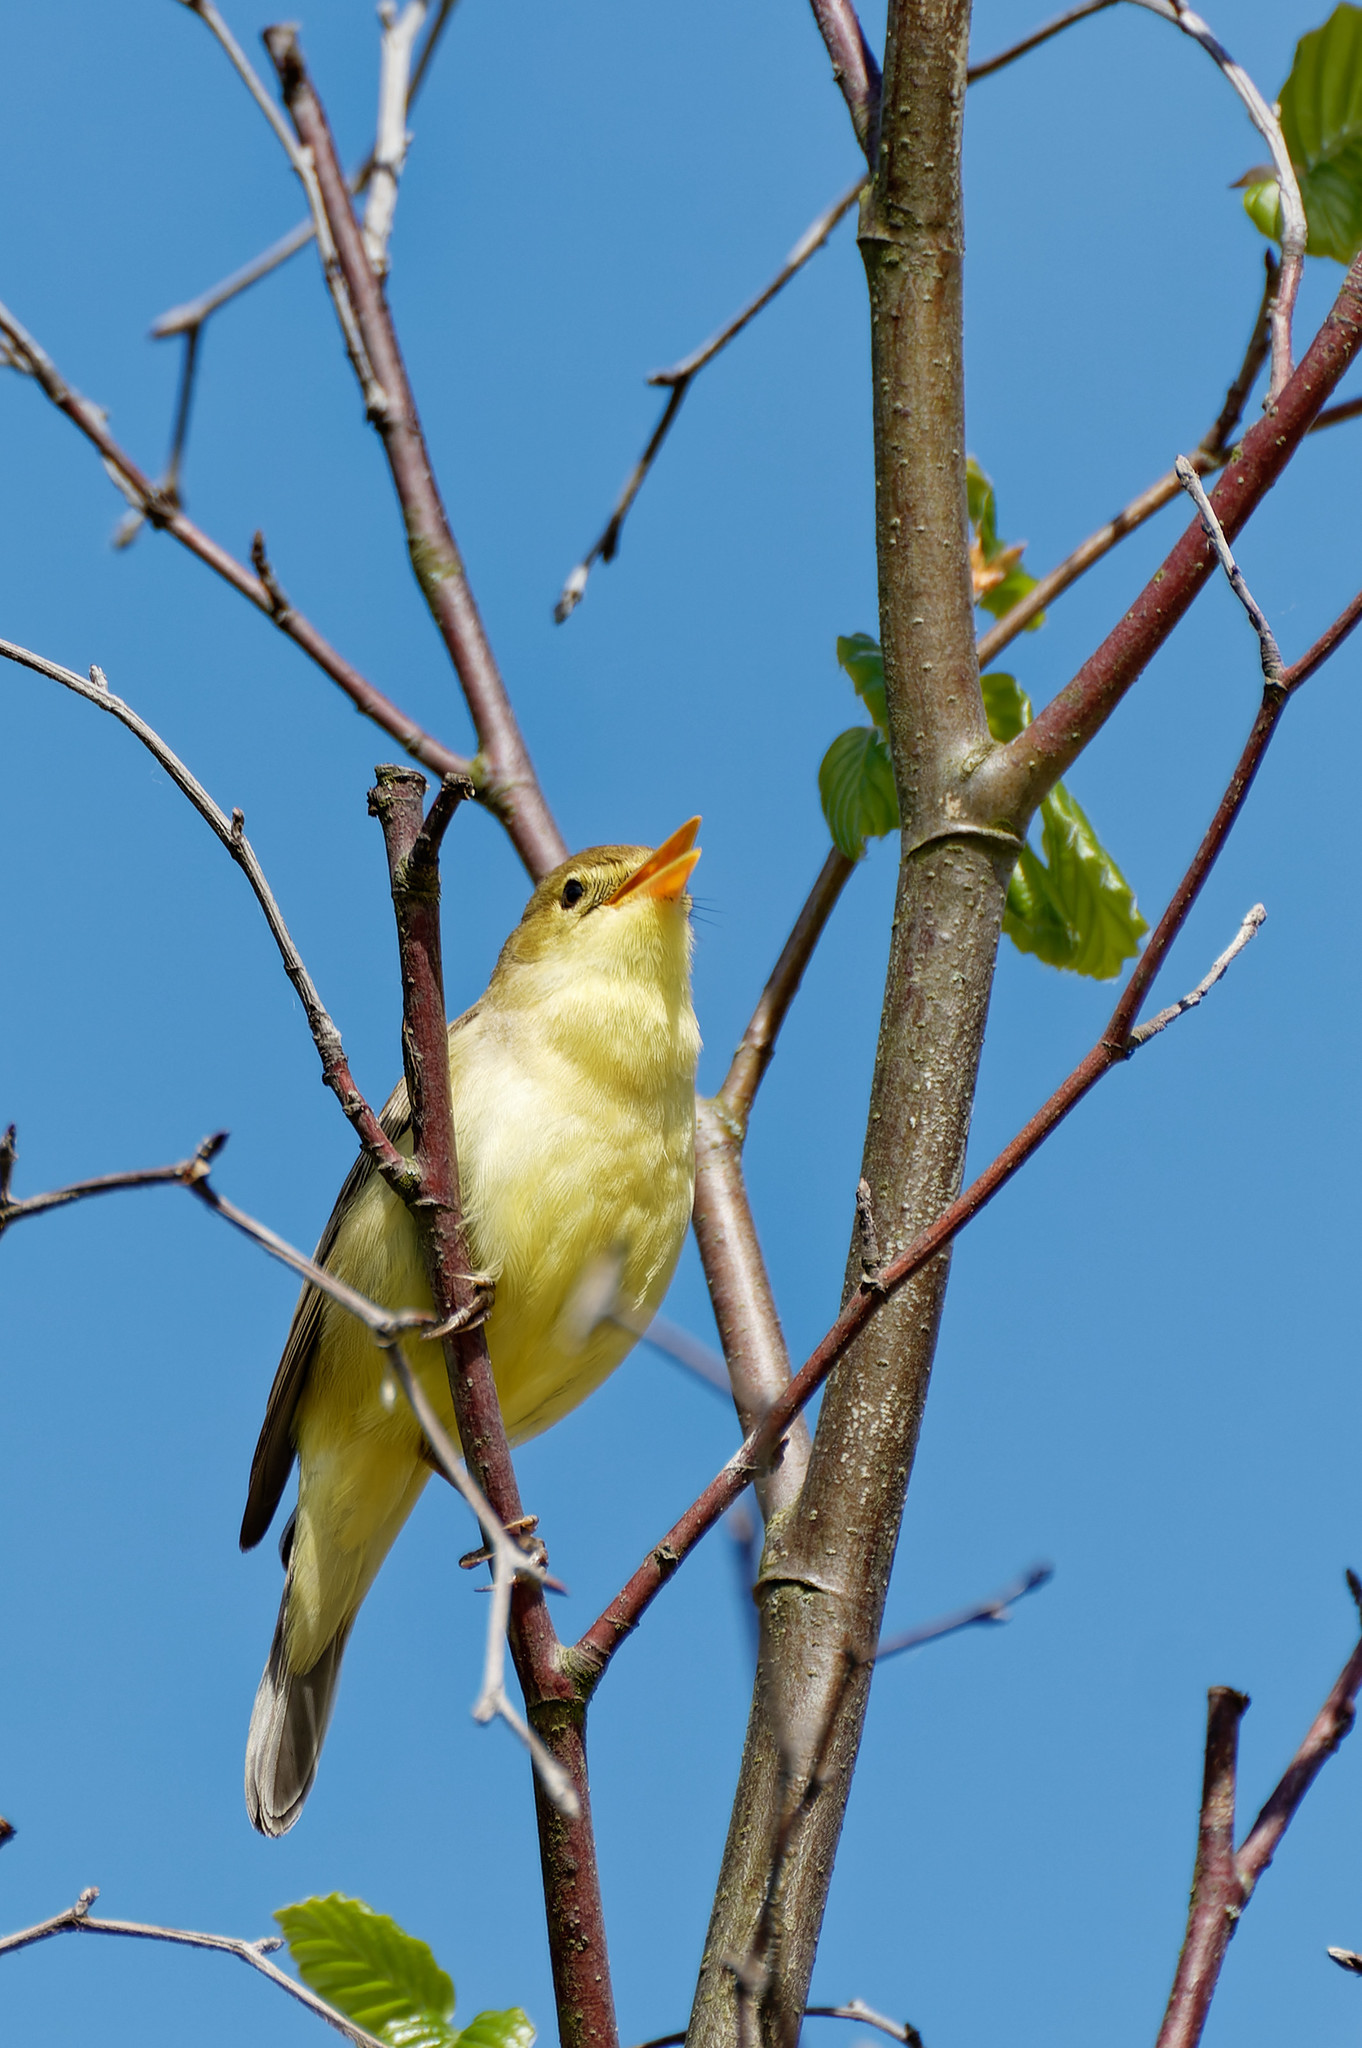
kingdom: Animalia
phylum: Chordata
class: Aves
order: Passeriformes
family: Acrocephalidae
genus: Hippolais
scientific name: Hippolais polyglotta
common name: Melodious warbler
